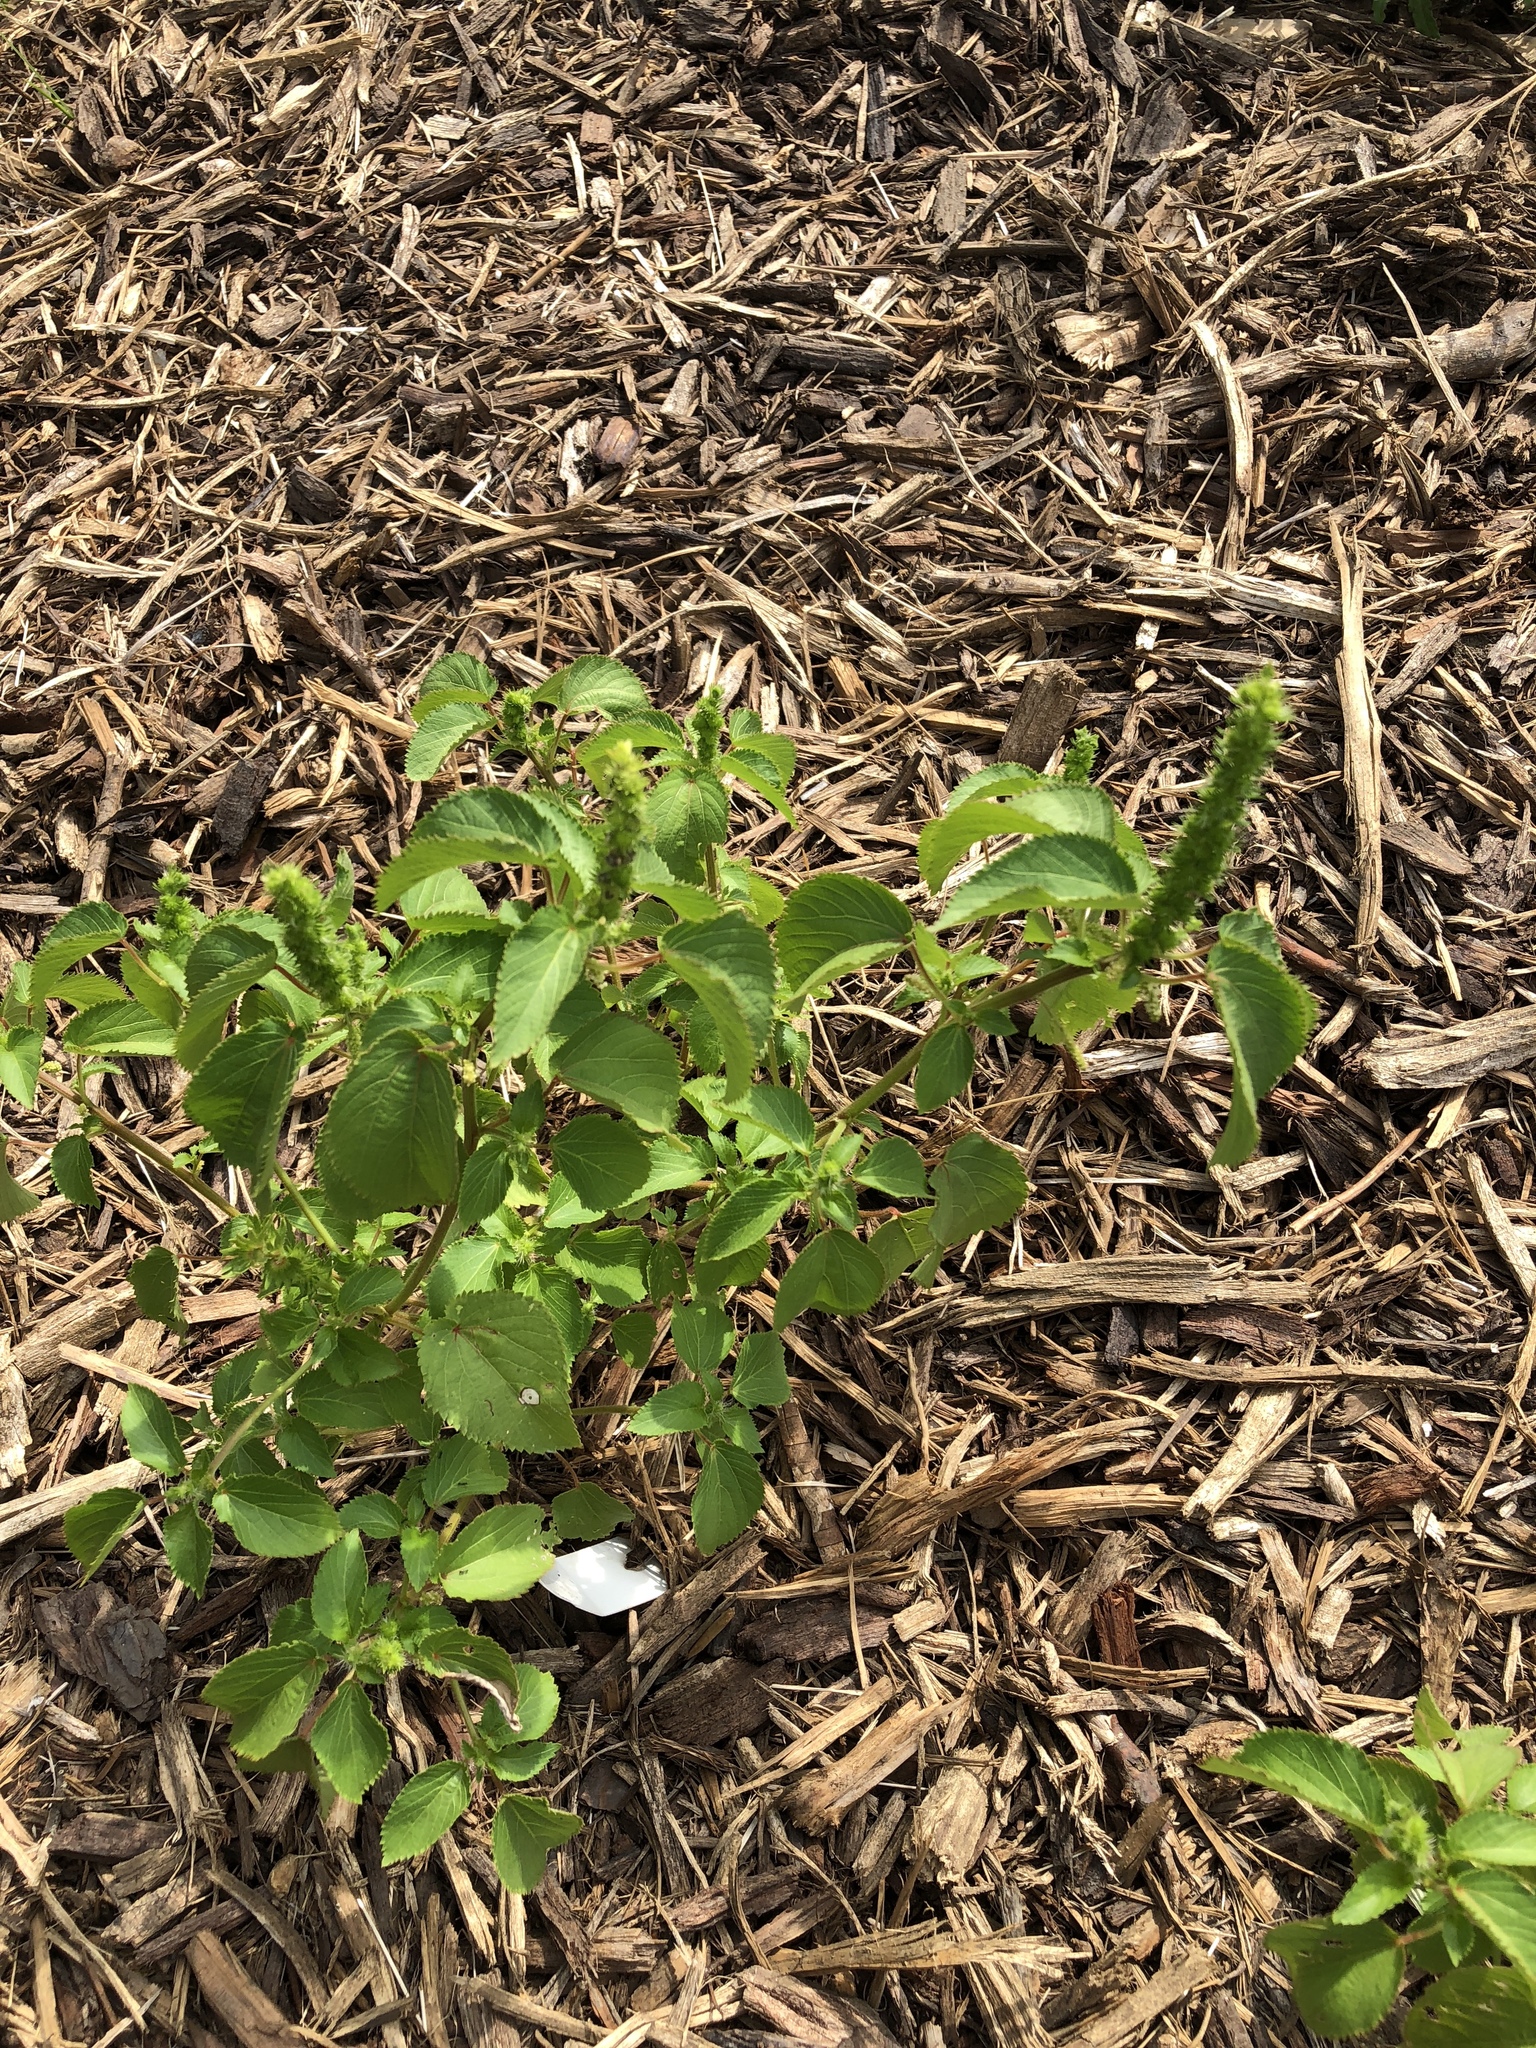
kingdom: Plantae
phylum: Tracheophyta
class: Magnoliopsida
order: Malpighiales
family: Euphorbiaceae
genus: Acalypha
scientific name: Acalypha ostryifolia
